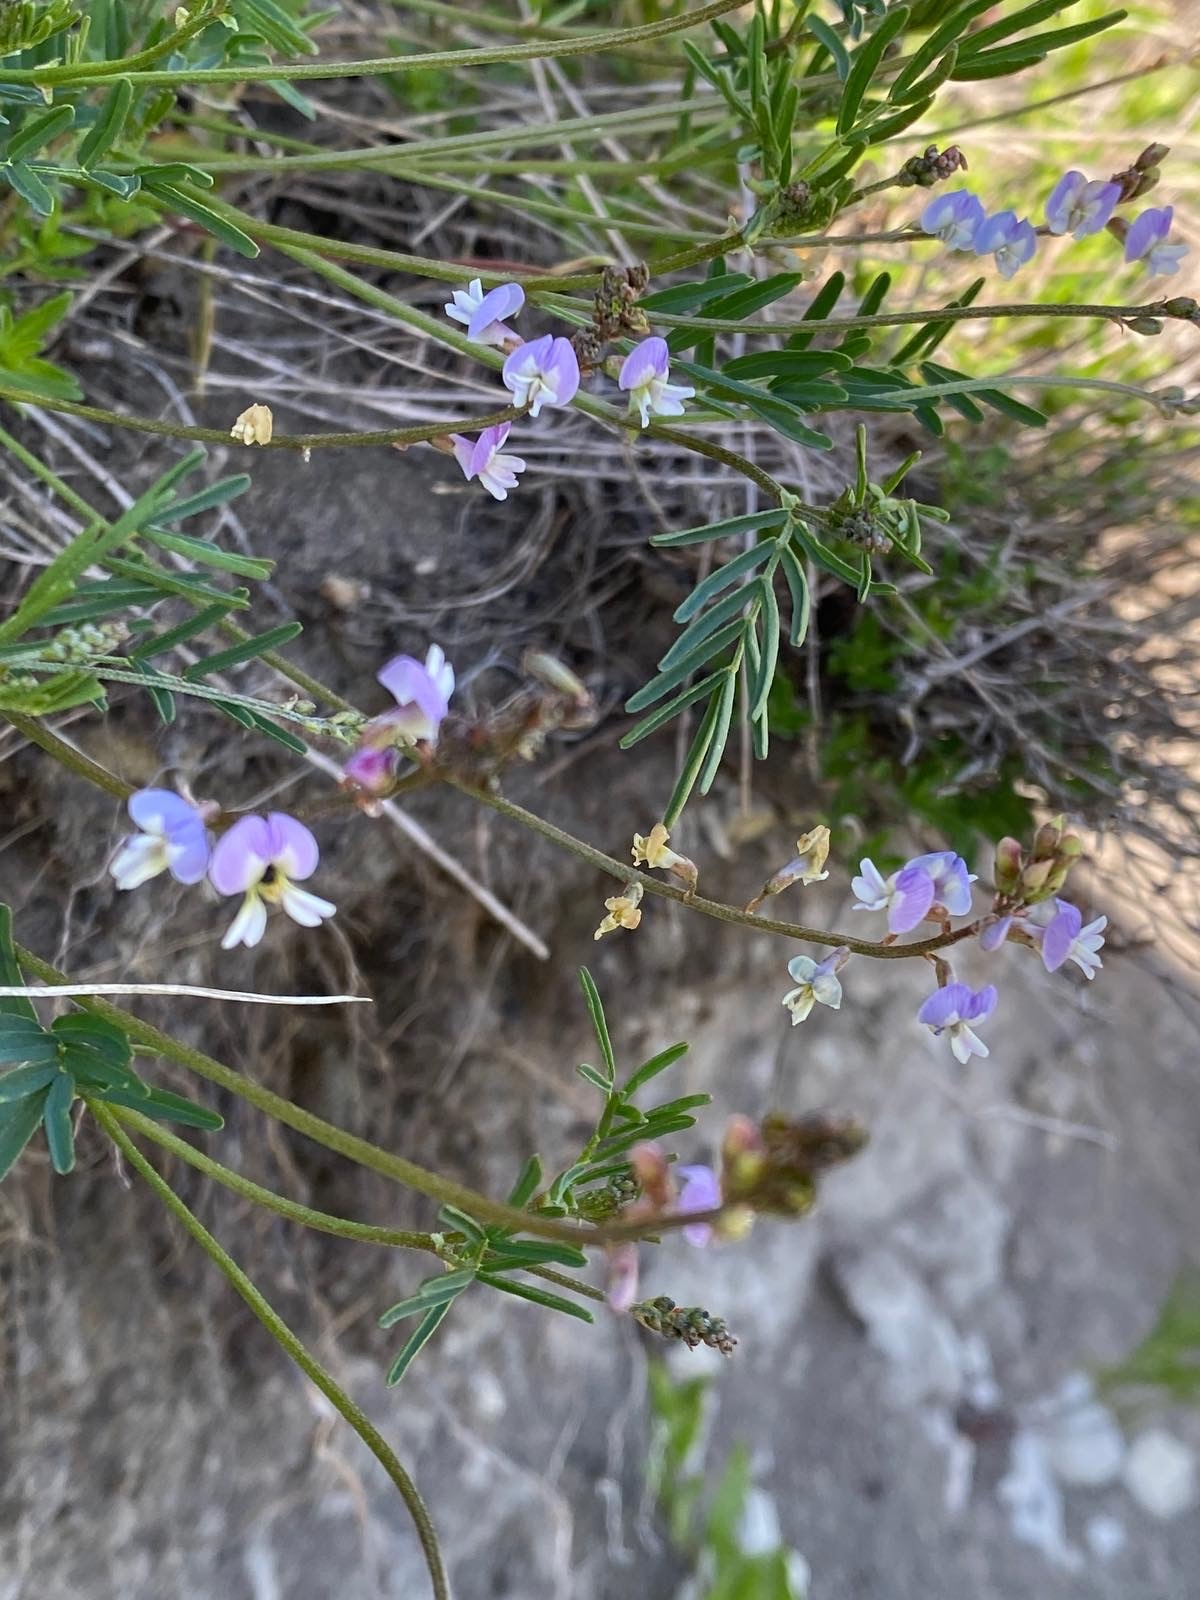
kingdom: Plantae
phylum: Tracheophyta
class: Magnoliopsida
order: Fabales
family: Fabaceae
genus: Astragalus
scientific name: Astragalus austriacus
